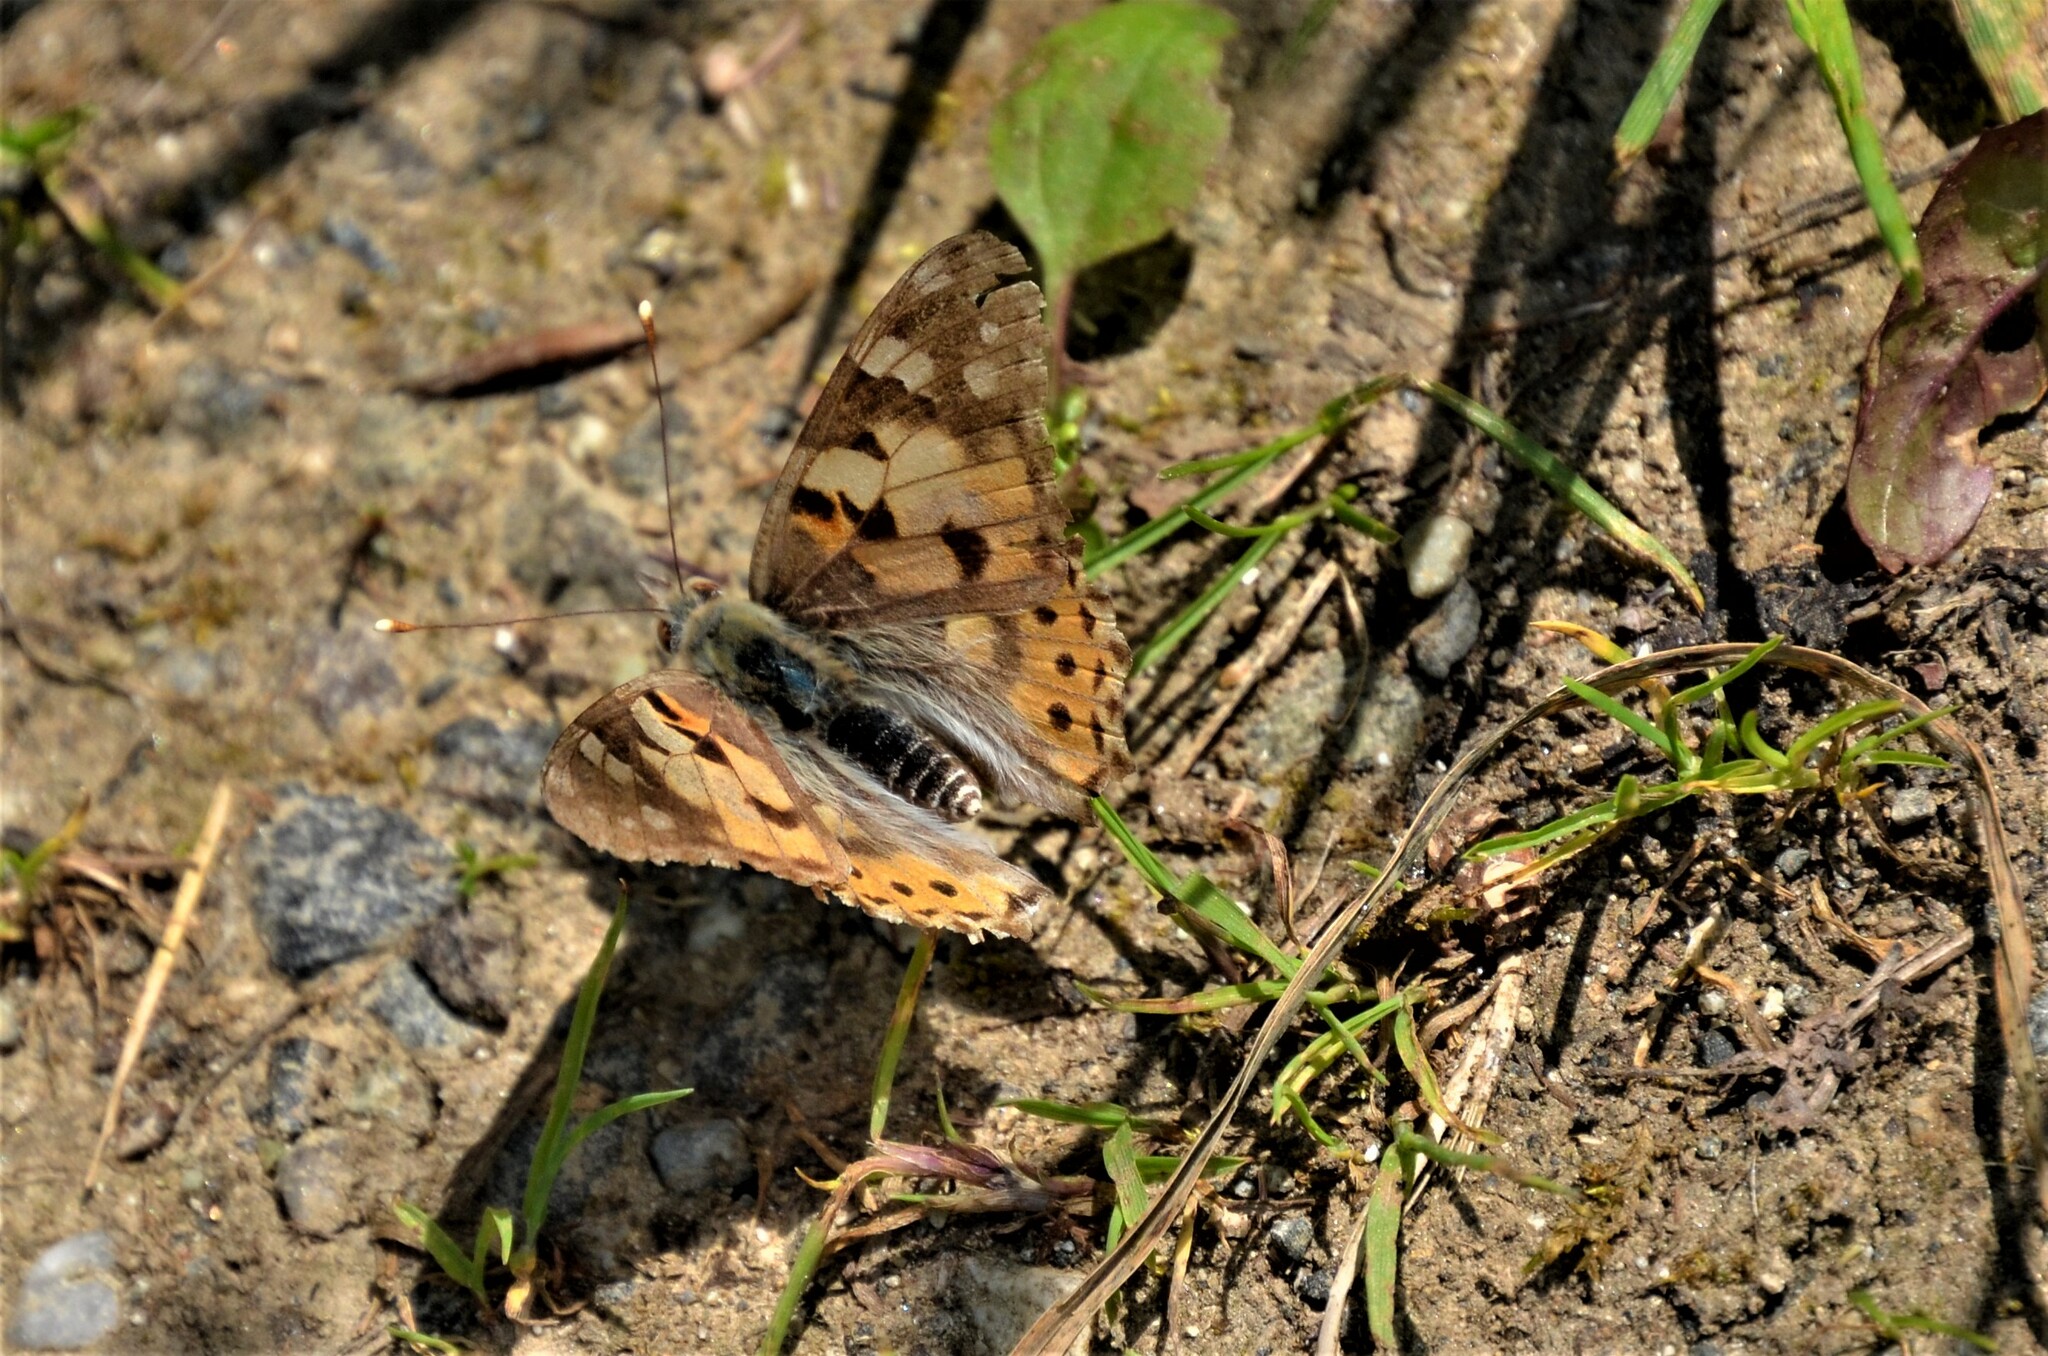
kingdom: Animalia
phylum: Arthropoda
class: Insecta
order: Lepidoptera
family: Nymphalidae
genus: Vanessa
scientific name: Vanessa cardui
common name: Painted lady
